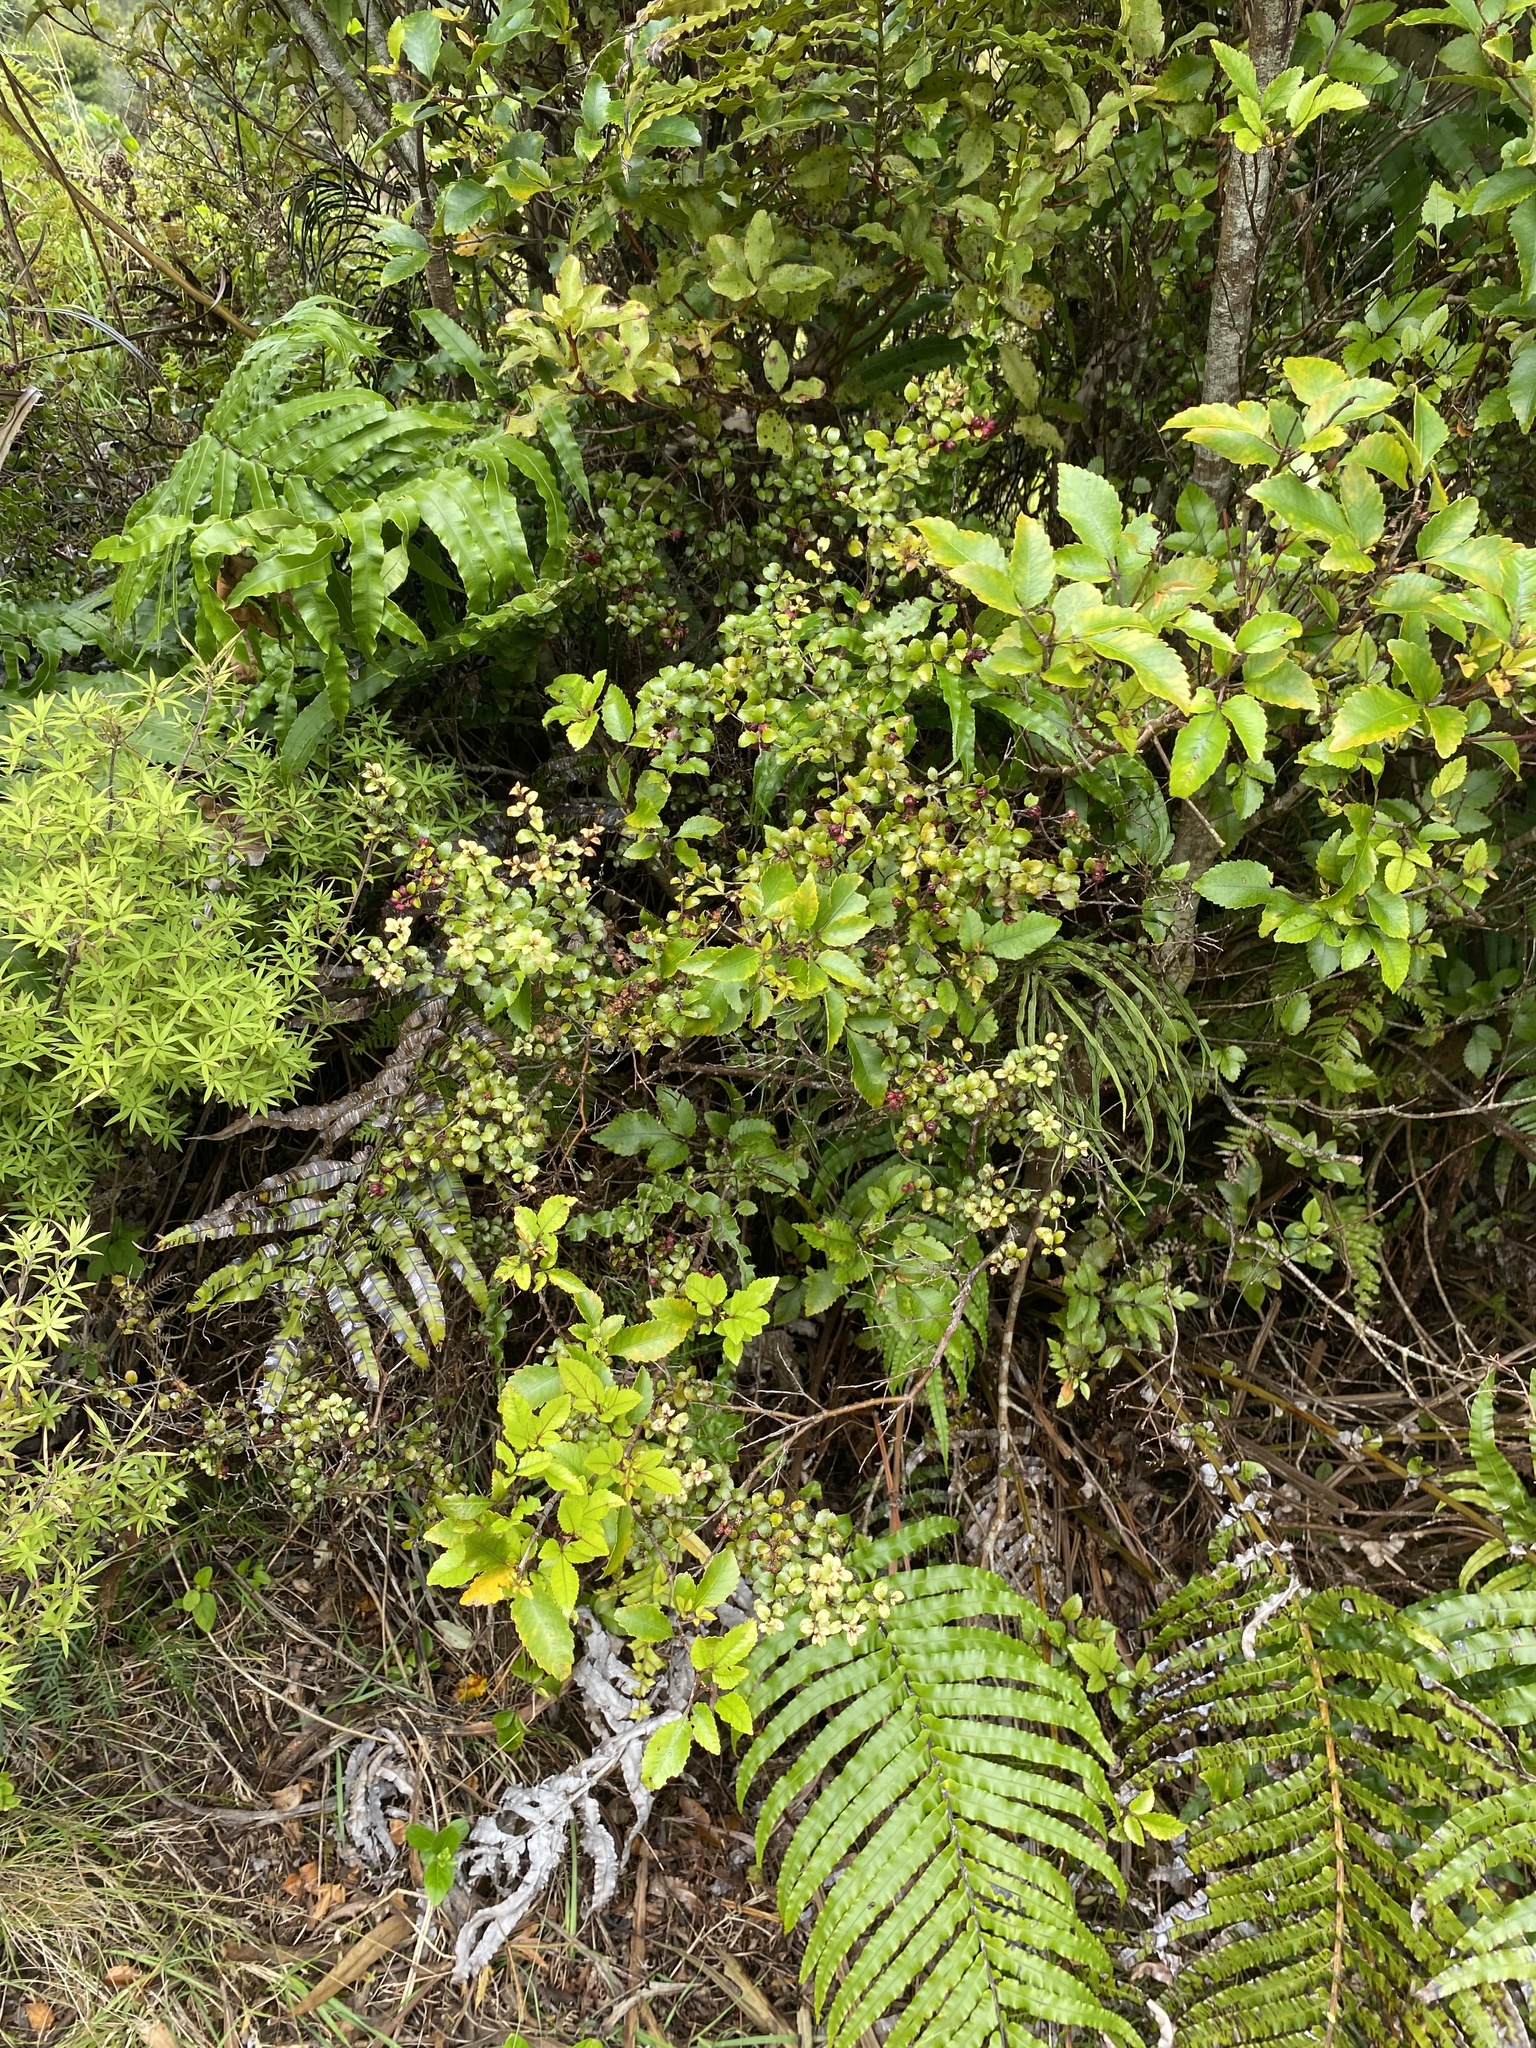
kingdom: Plantae
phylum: Tracheophyta
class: Magnoliopsida
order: Ericales
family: Ericaceae
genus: Gaultheria
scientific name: Gaultheria antipoda
